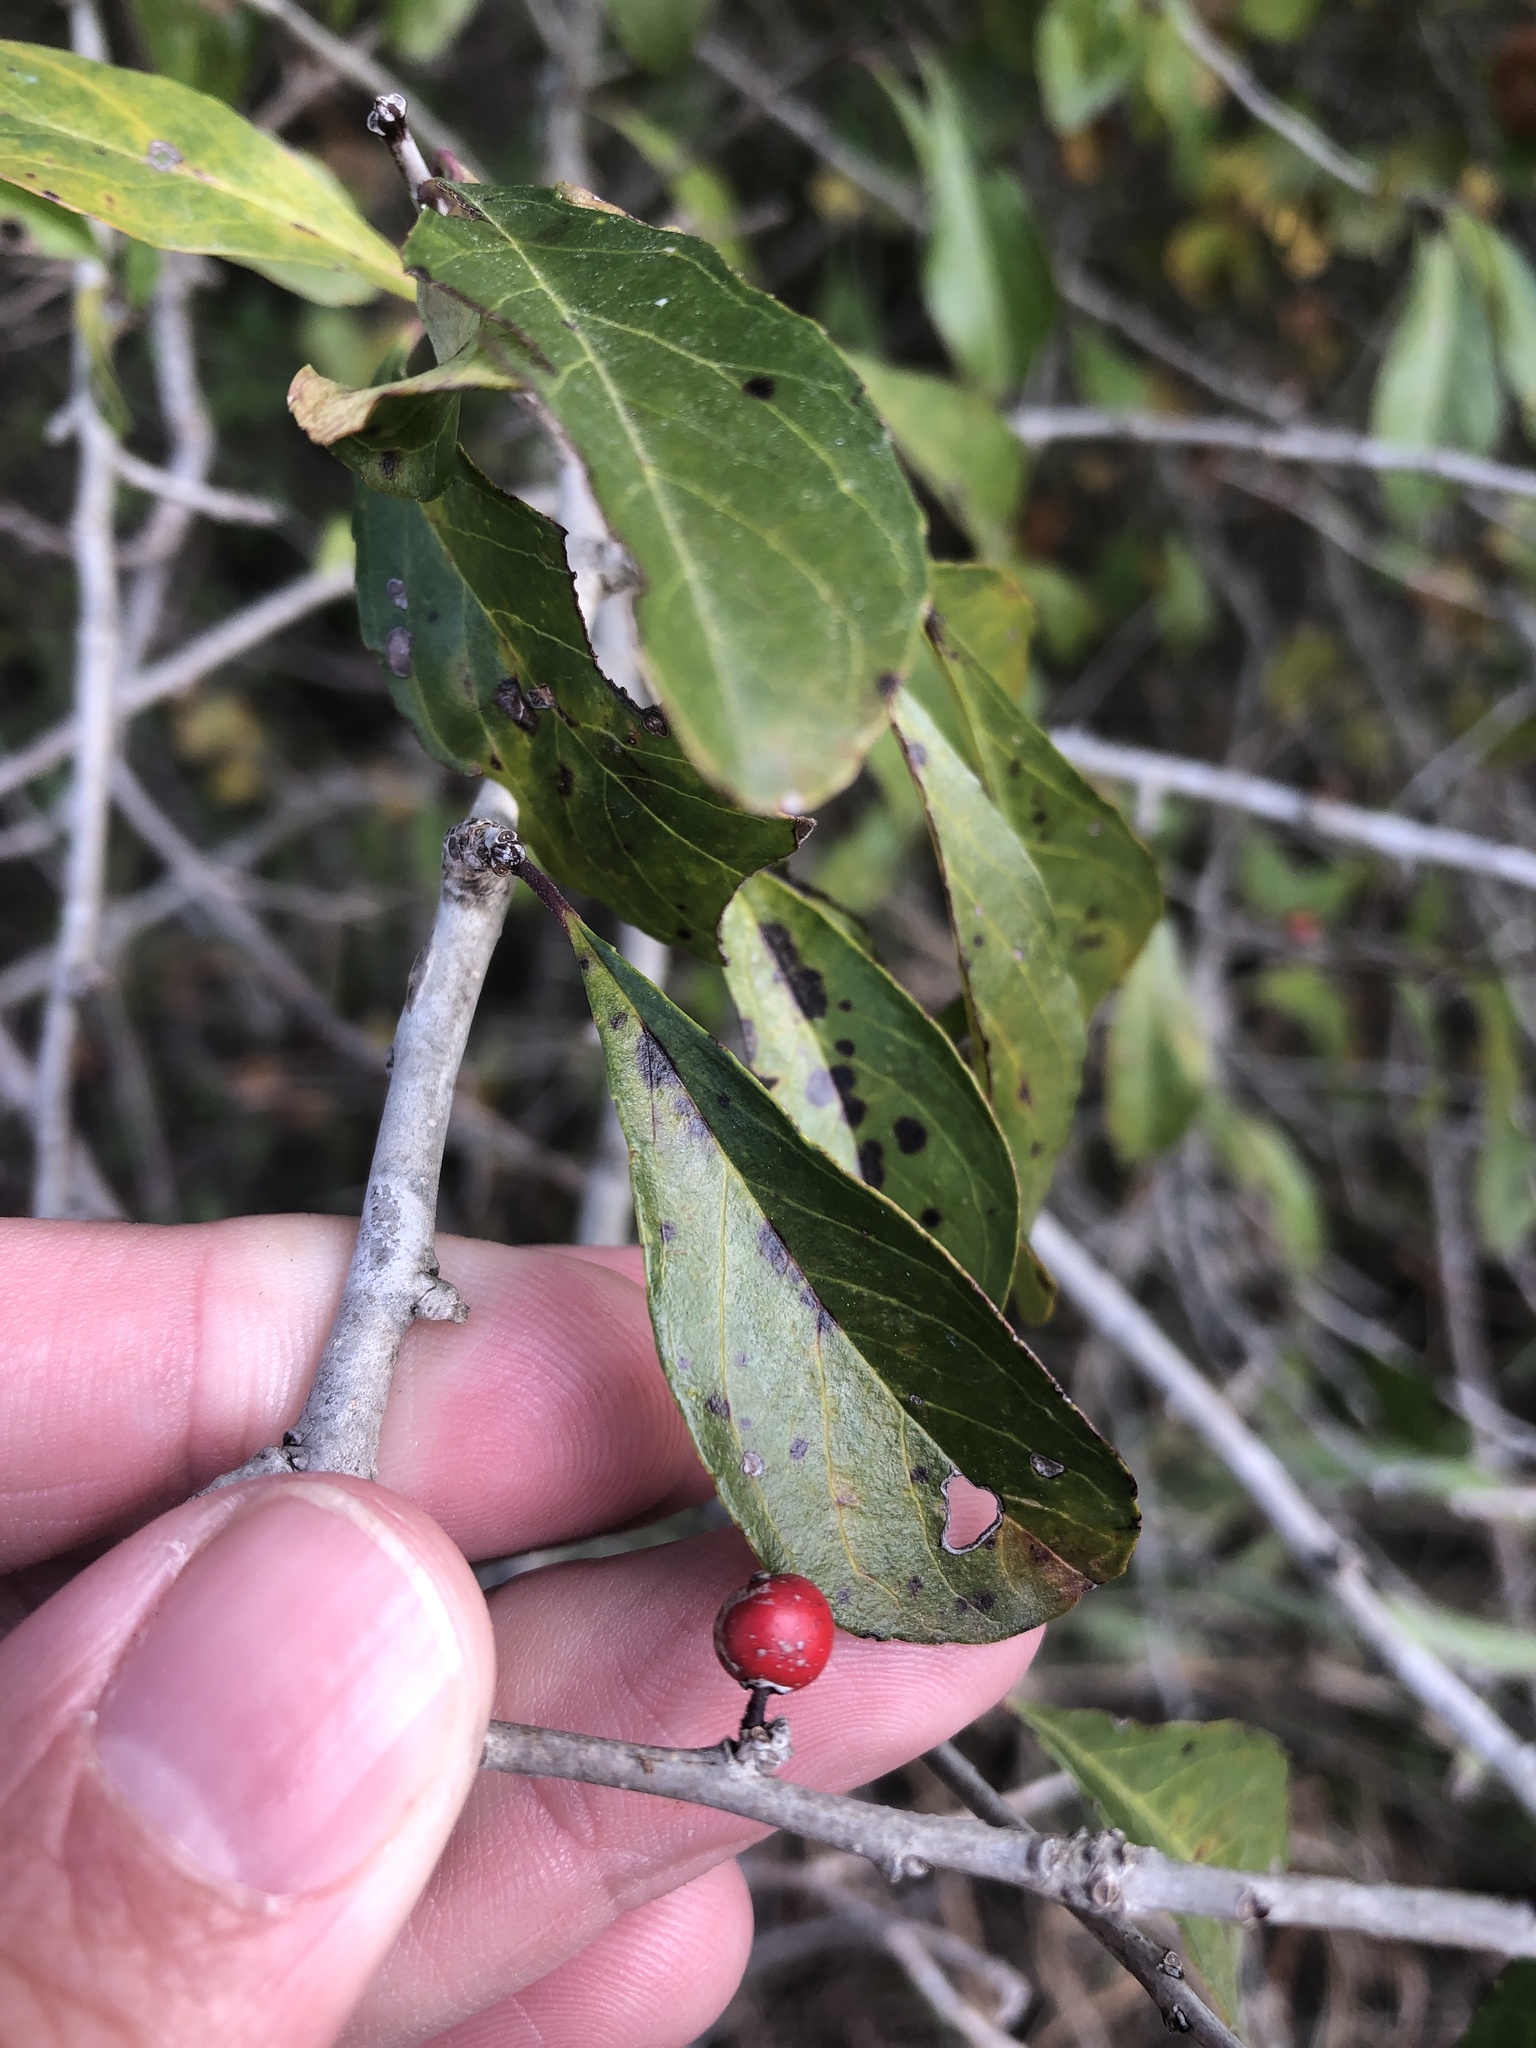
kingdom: Plantae
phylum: Tracheophyta
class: Magnoliopsida
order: Aquifoliales
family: Aquifoliaceae
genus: Ilex
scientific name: Ilex decidua
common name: Possum-haw
